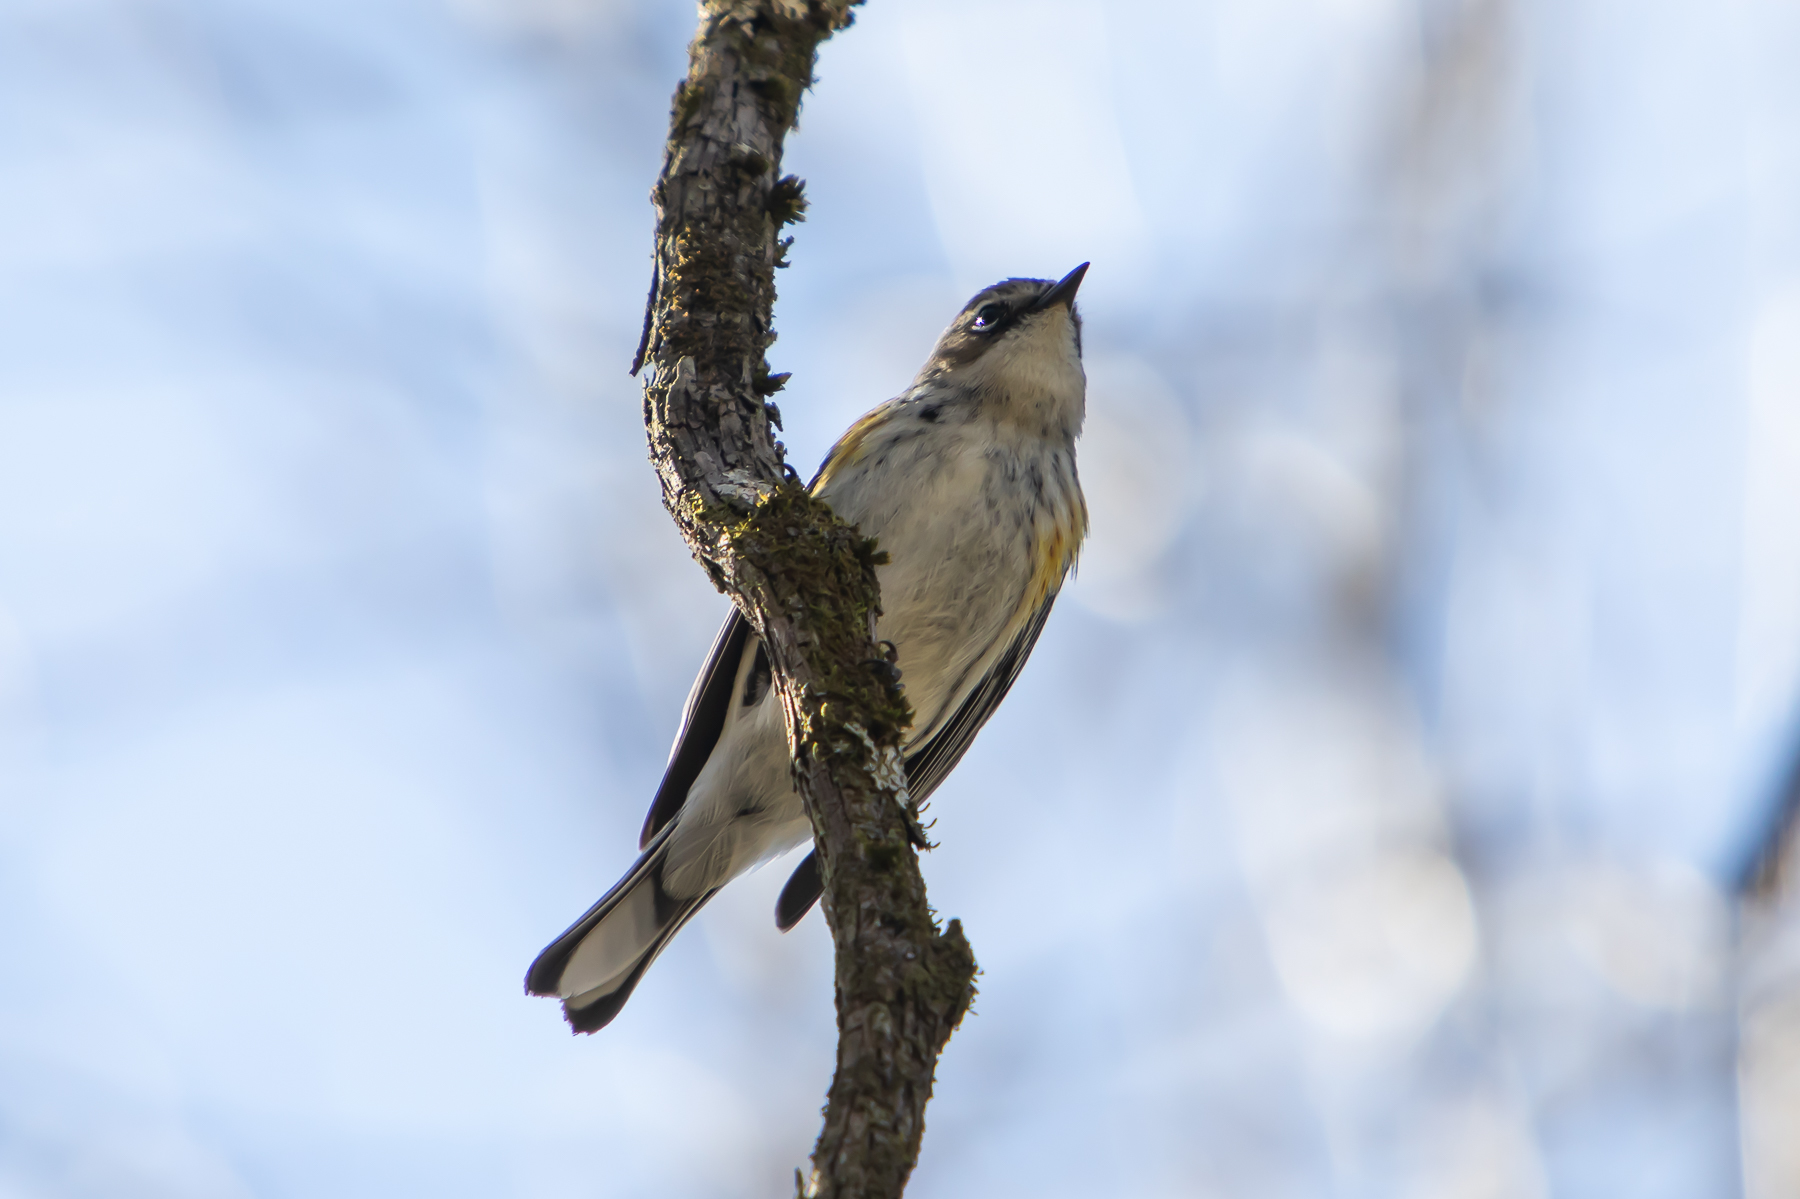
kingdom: Animalia
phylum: Chordata
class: Aves
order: Passeriformes
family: Parulidae
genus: Setophaga
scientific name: Setophaga coronata
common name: Myrtle warbler
